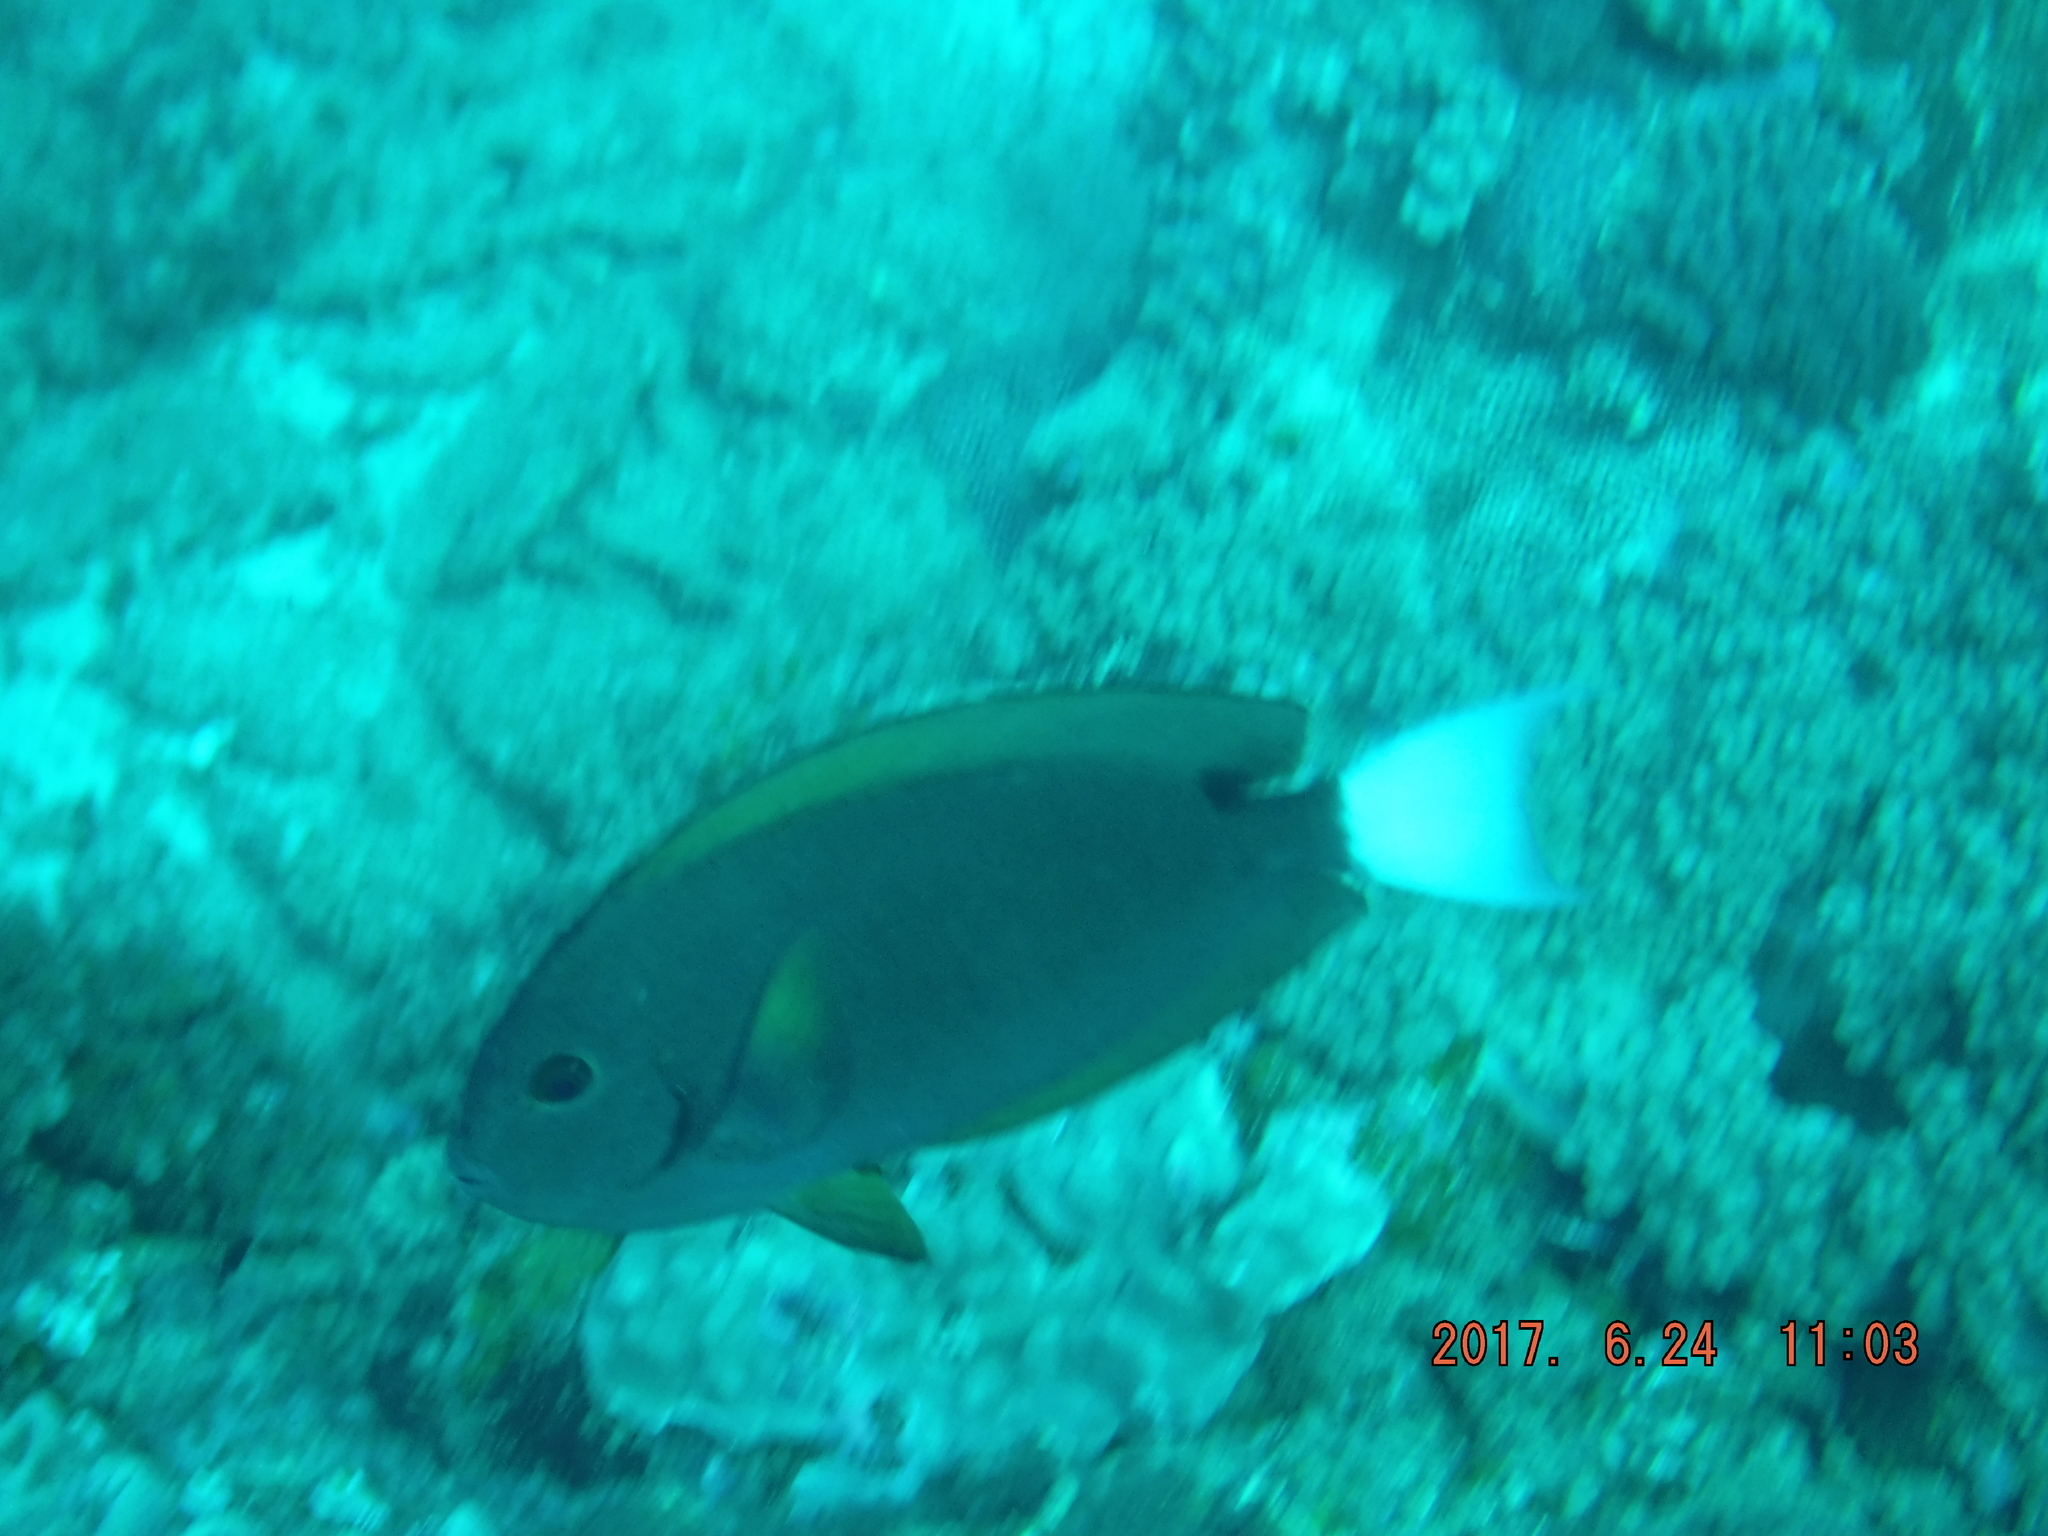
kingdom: Animalia
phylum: Chordata
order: Perciformes
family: Acanthuridae
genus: Acanthurus
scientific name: Acanthurus thompsoni
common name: Chocolate surgeonfish
